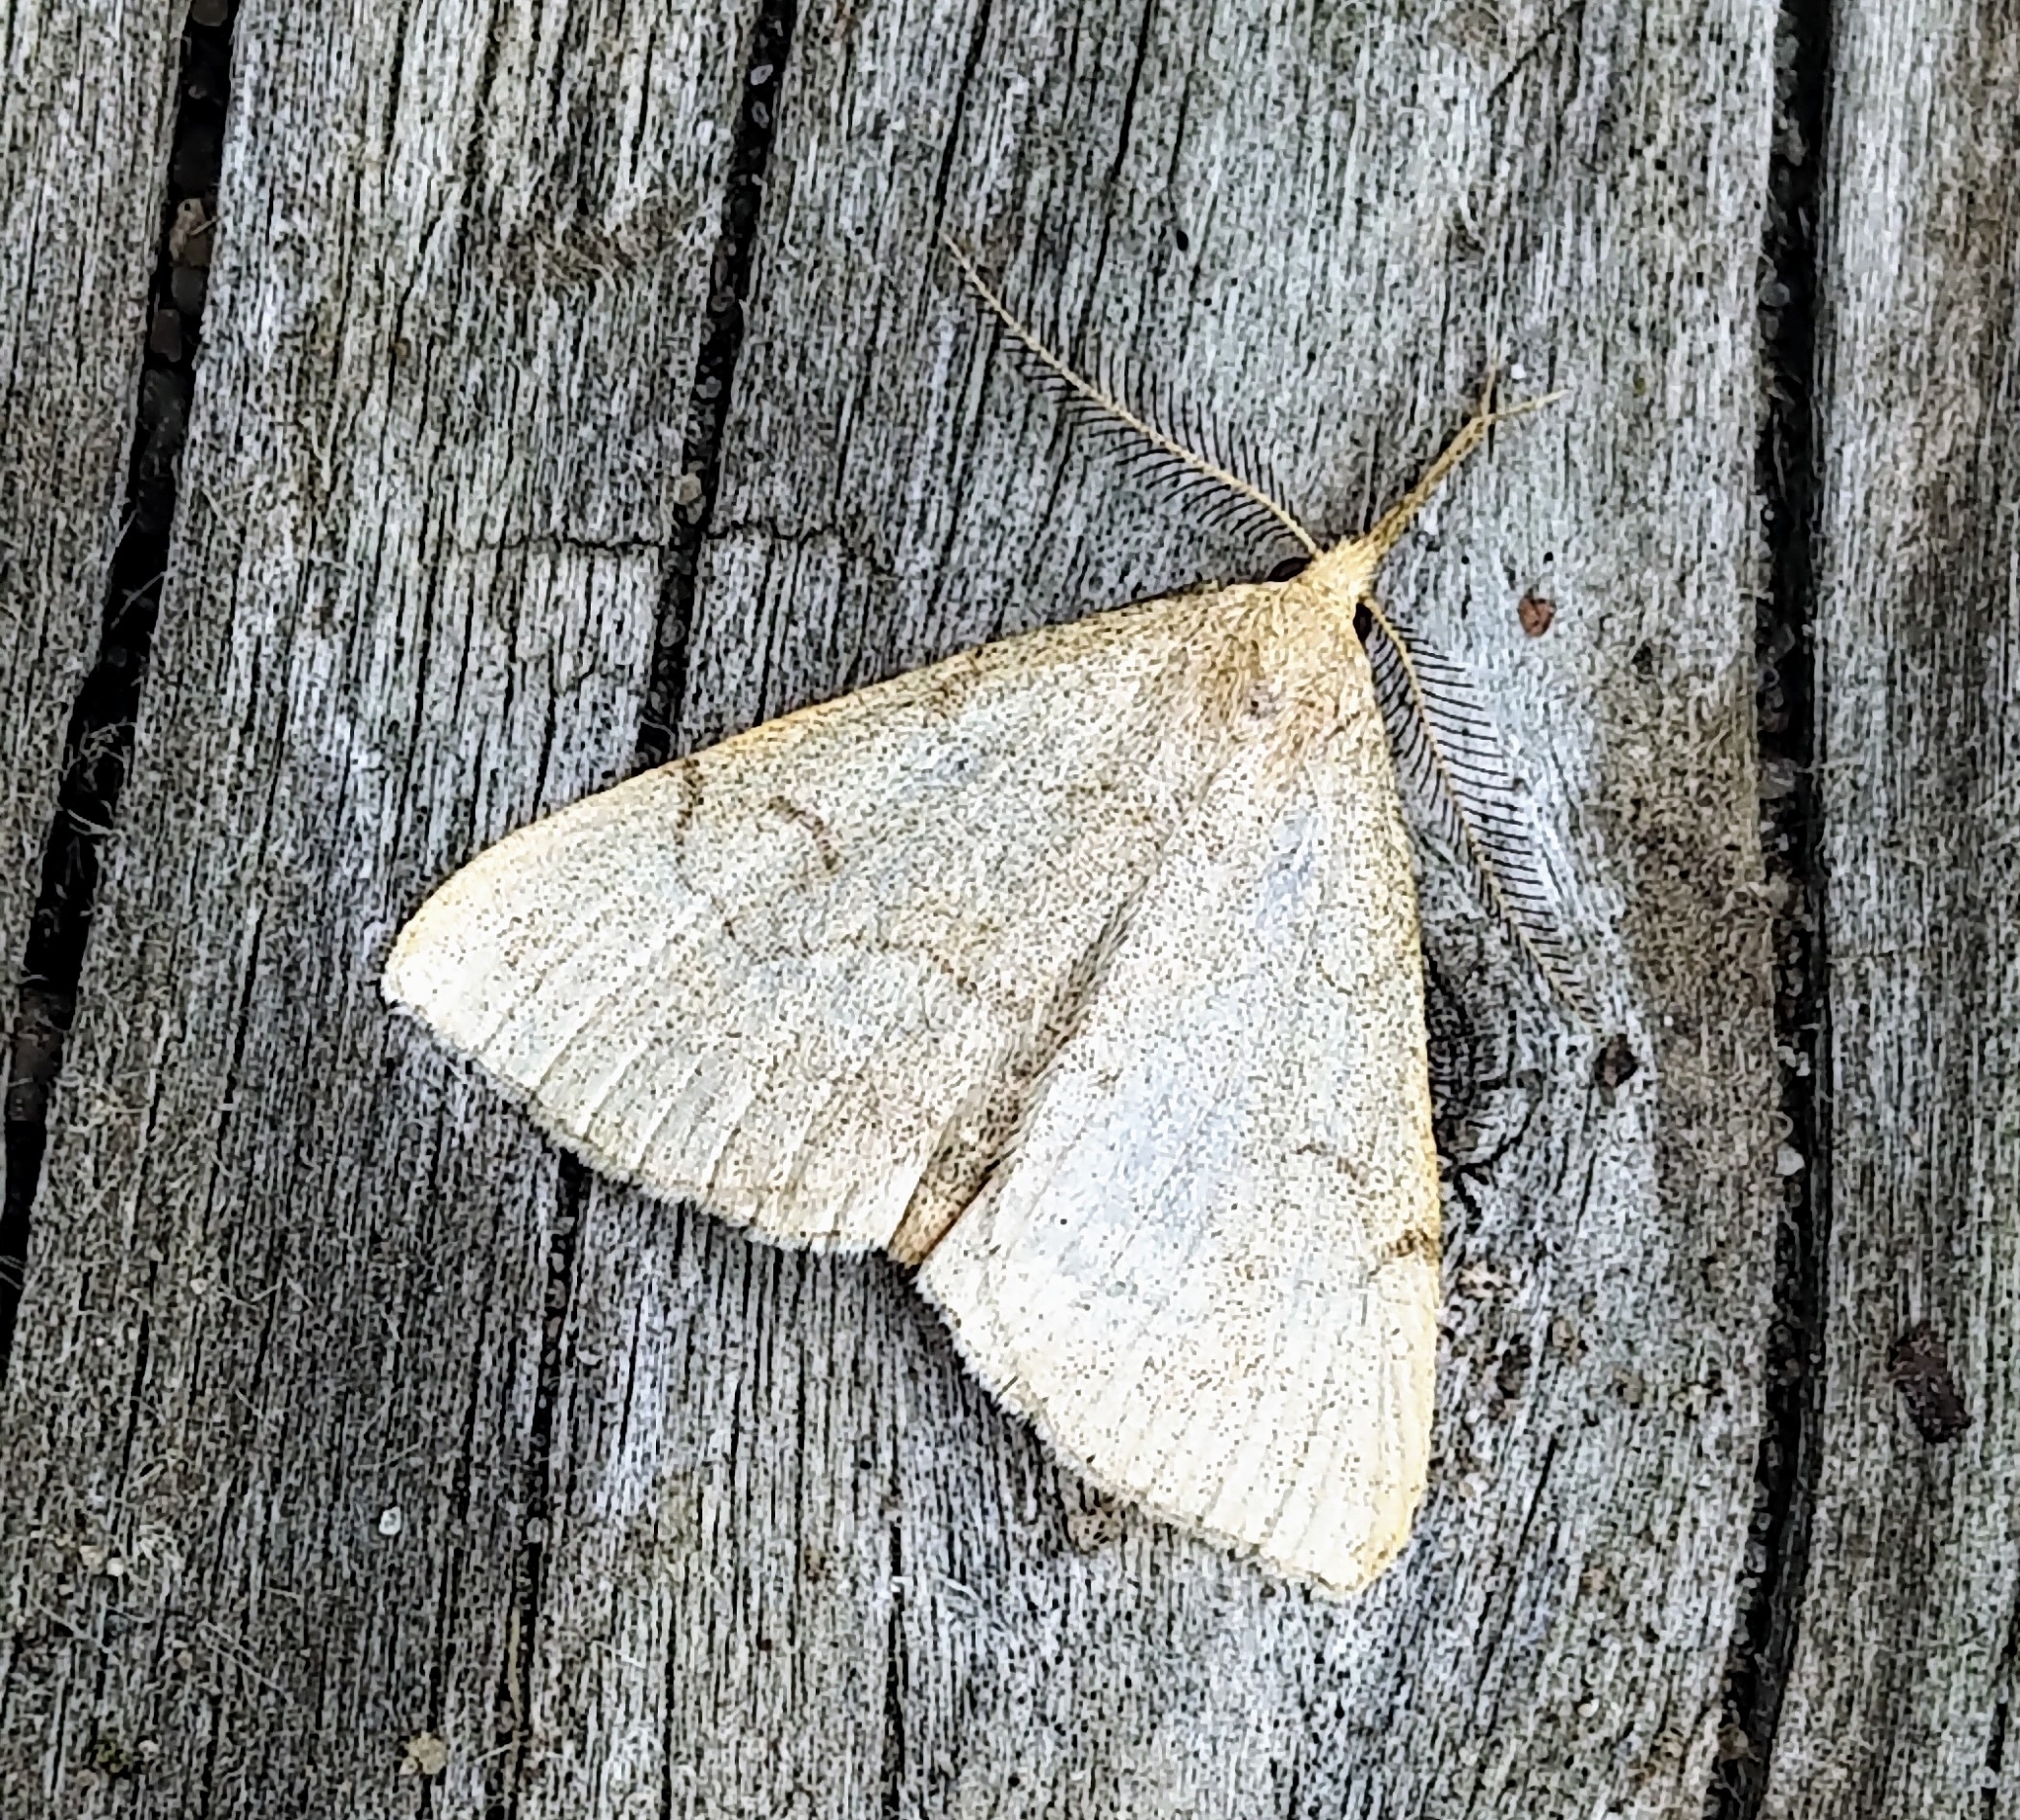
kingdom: Animalia
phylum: Arthropoda
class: Insecta
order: Lepidoptera
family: Erebidae
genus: Phalaenostola
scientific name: Phalaenostola metonalis
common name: Pale phalaenostola moth
